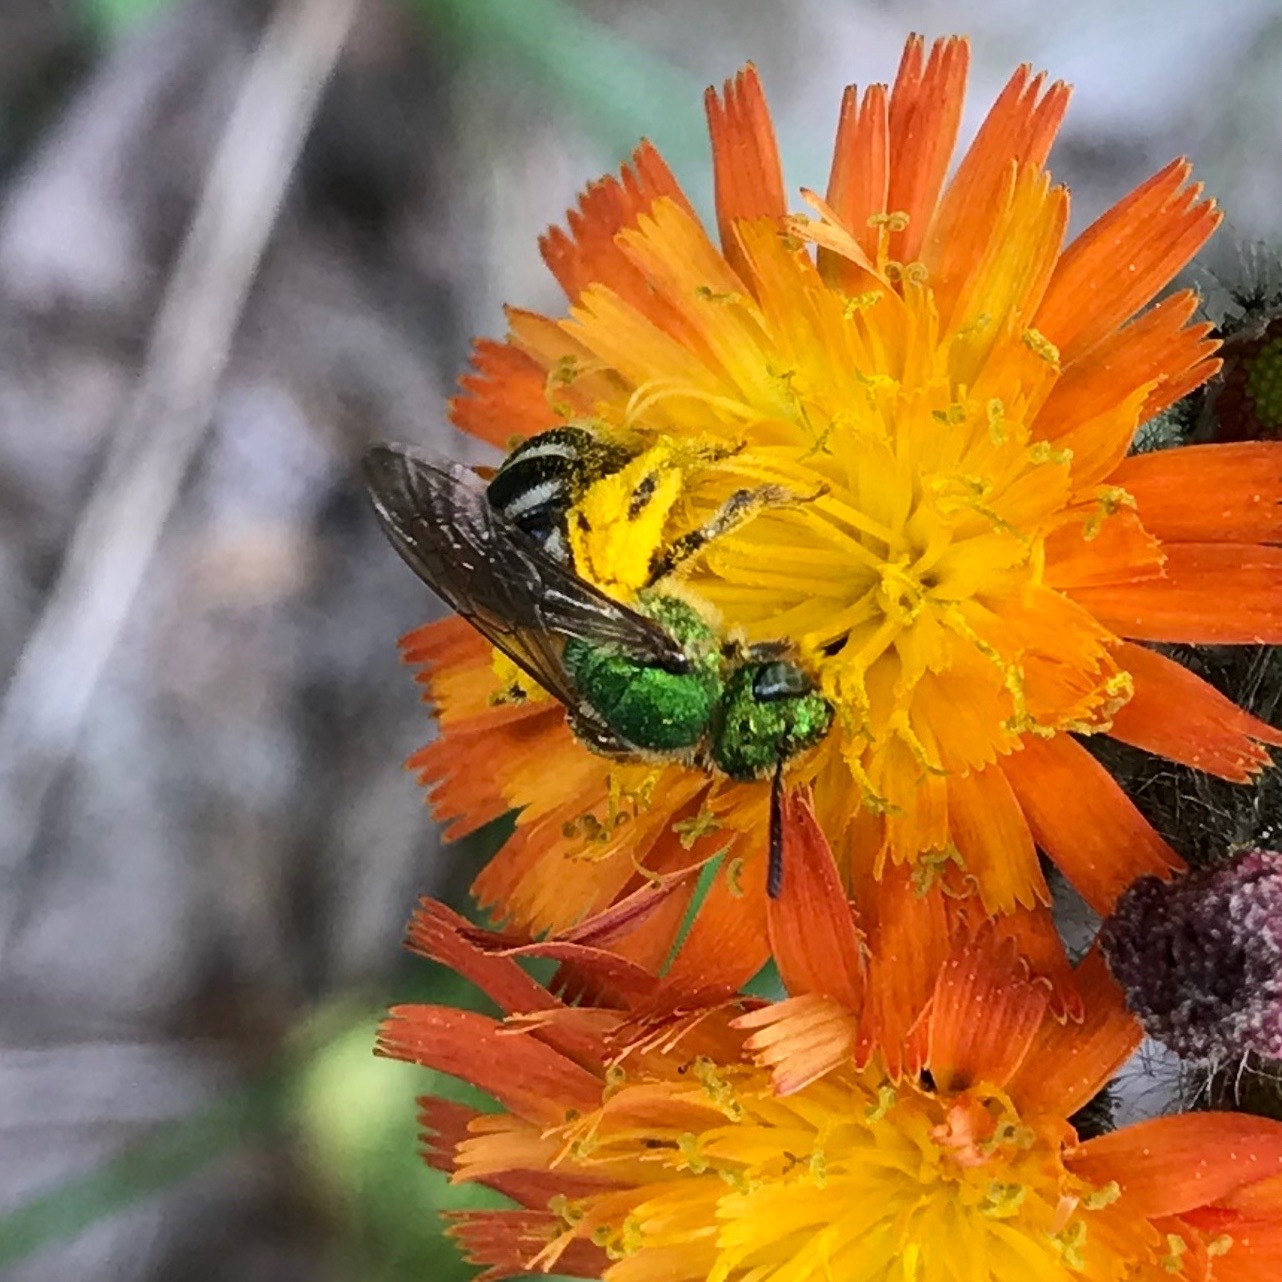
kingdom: Animalia
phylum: Arthropoda
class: Insecta
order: Hymenoptera
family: Halictidae
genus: Agapostemon
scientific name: Agapostemon virescens
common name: Bicolored striped sweat bee
